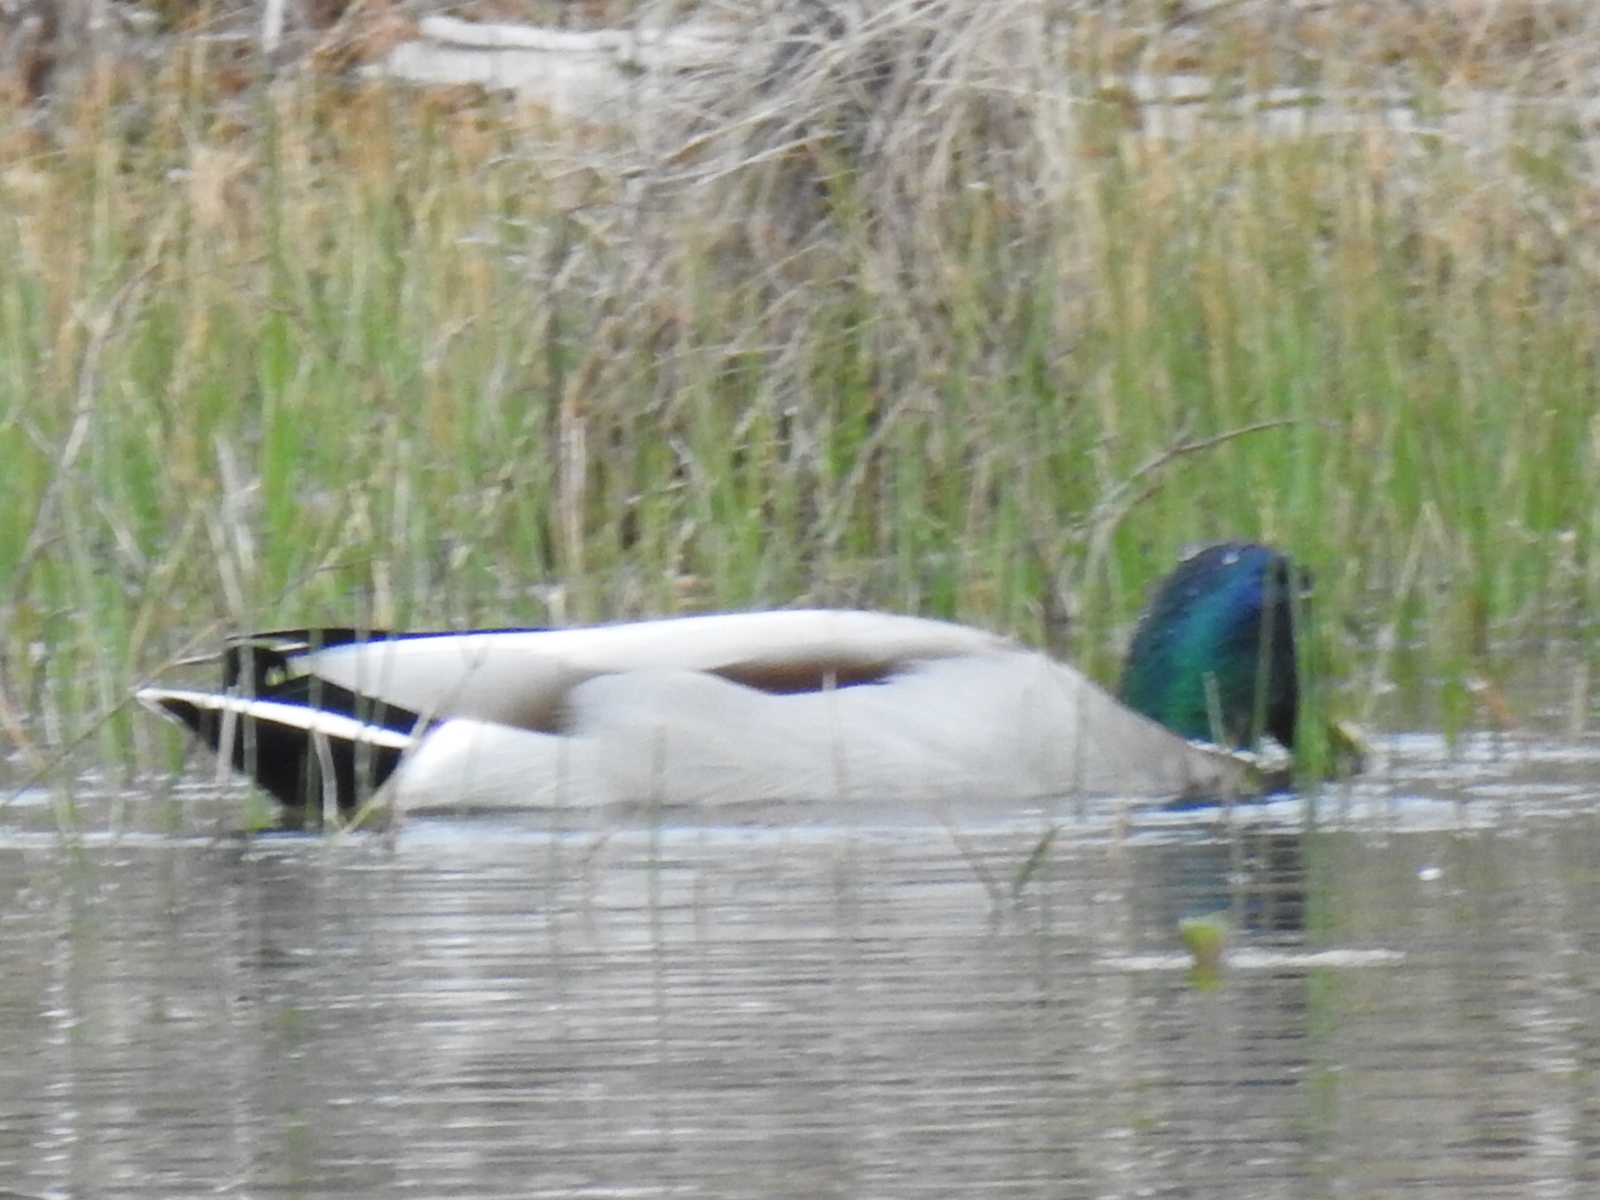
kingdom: Animalia
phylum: Chordata
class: Aves
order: Anseriformes
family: Anatidae
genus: Anas
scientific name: Anas platyrhynchos
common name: Mallard
